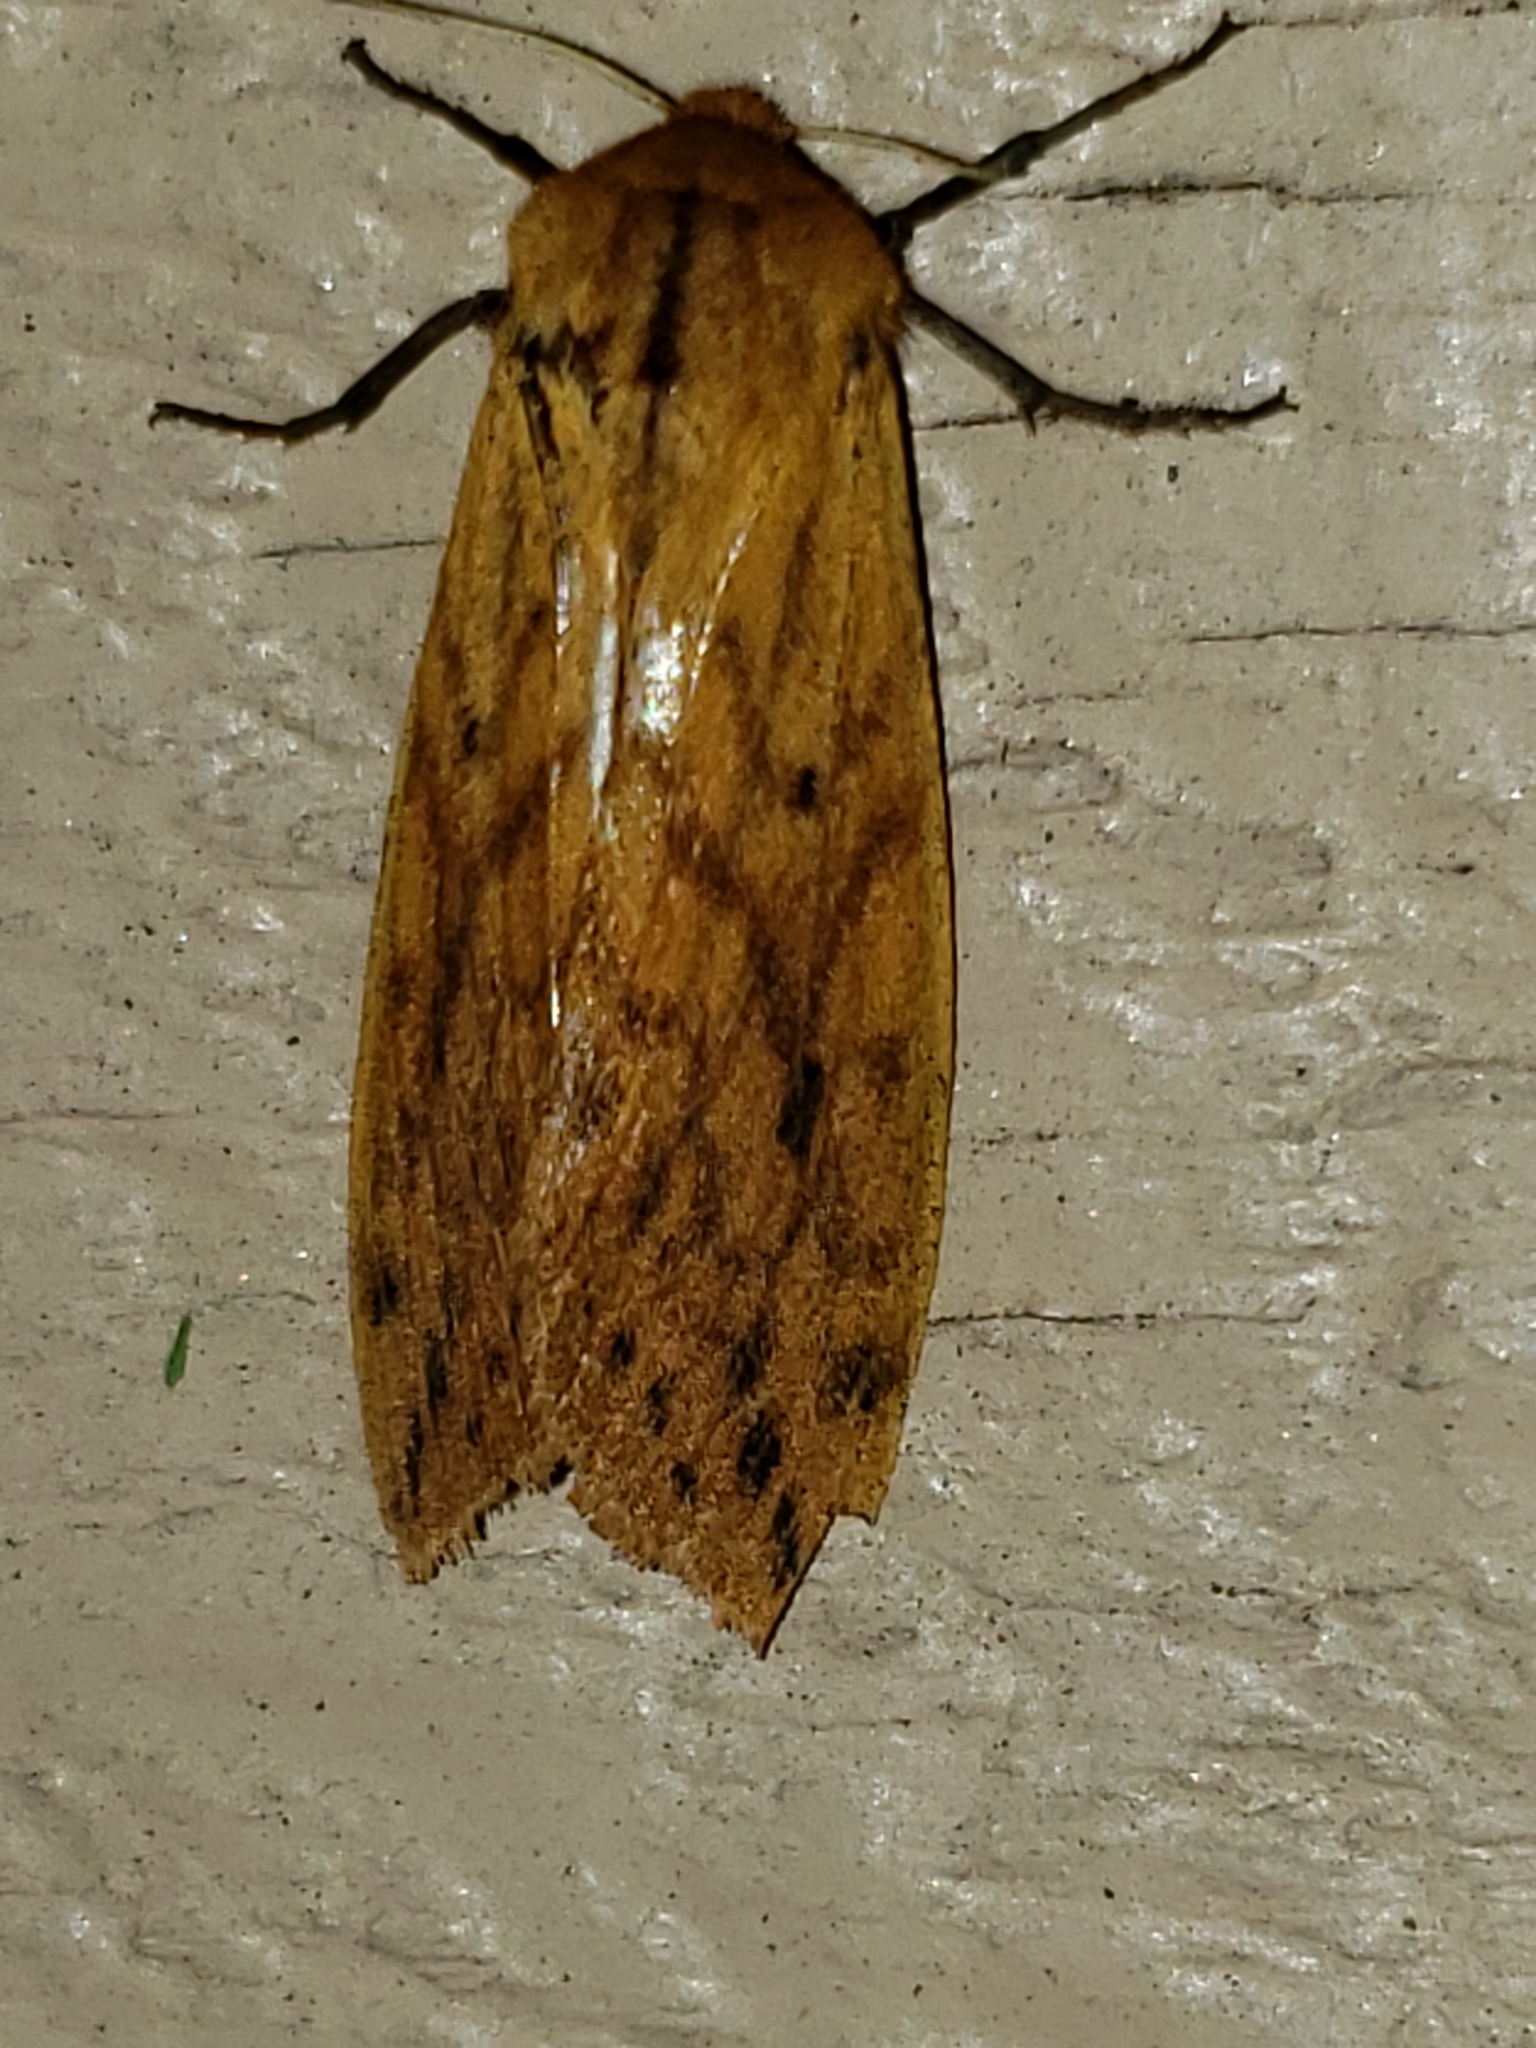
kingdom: Animalia
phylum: Arthropoda
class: Insecta
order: Lepidoptera
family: Erebidae
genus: Pyrrharctia
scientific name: Pyrrharctia isabella
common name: Isabella tiger moth
